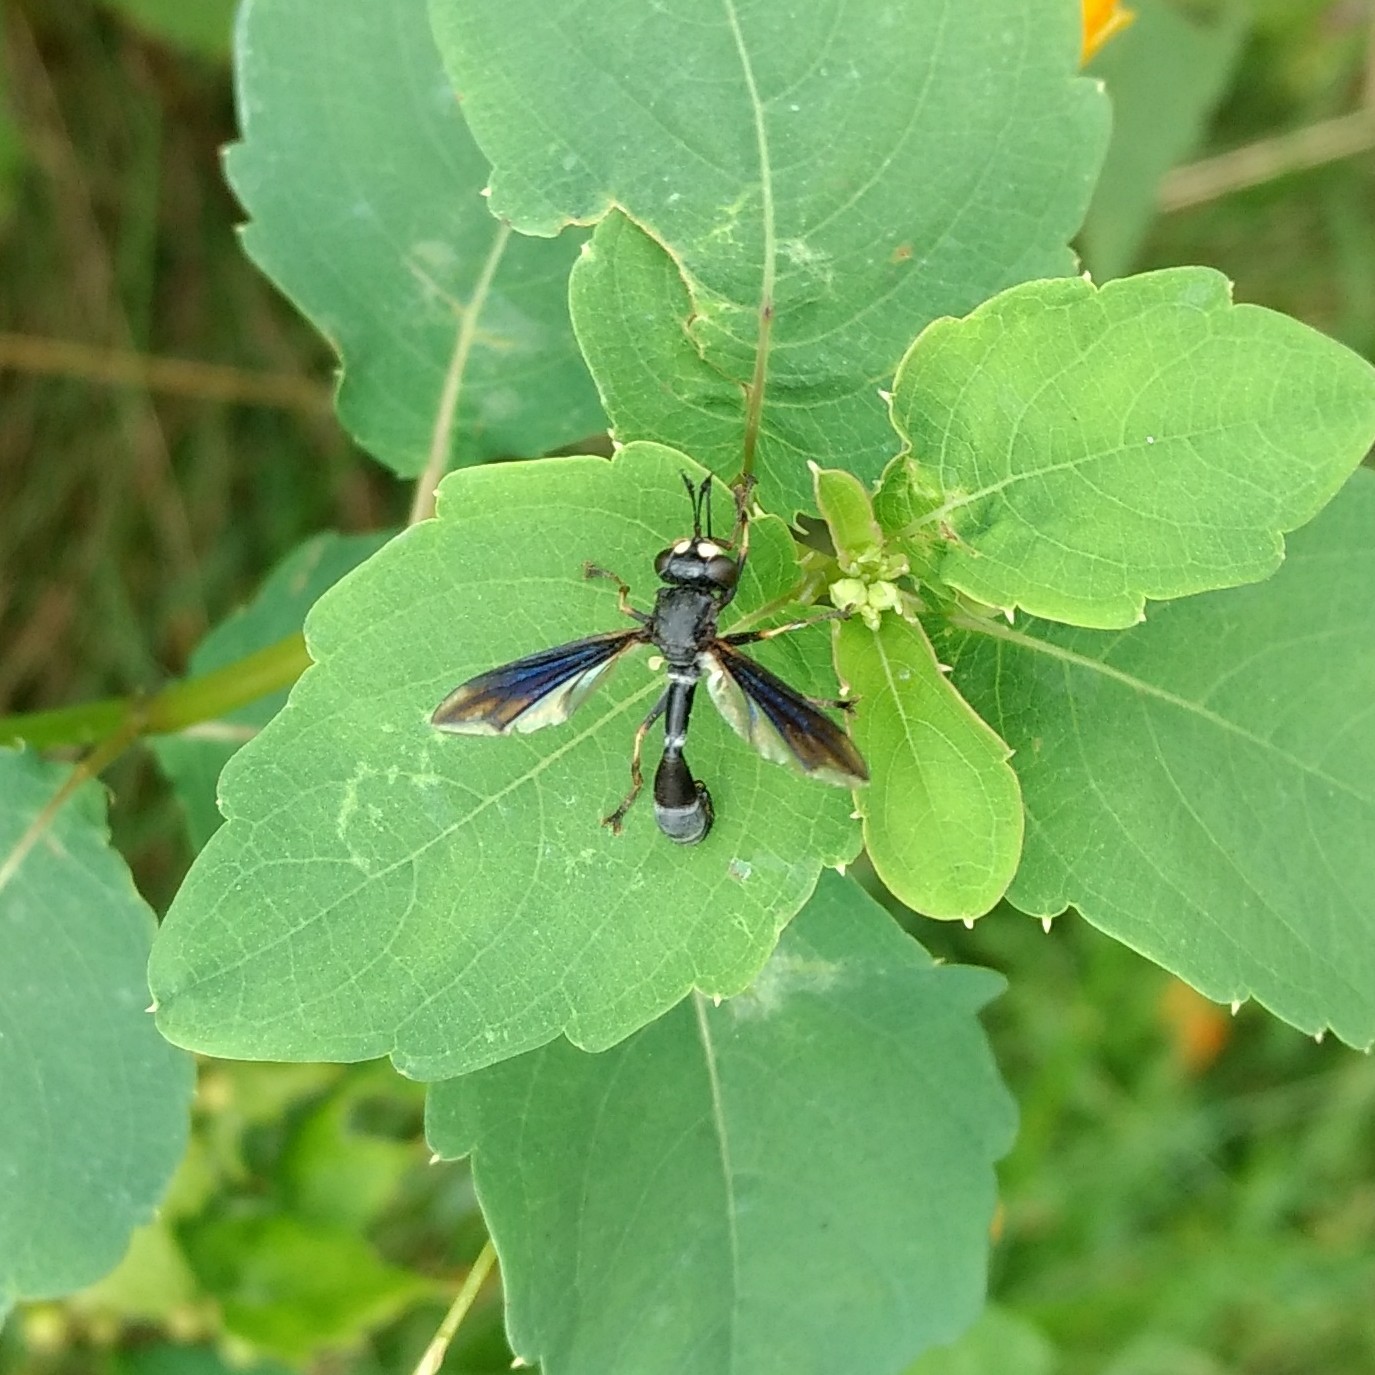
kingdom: Animalia
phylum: Arthropoda
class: Insecta
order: Diptera
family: Conopidae
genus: Physocephala
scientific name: Physocephala tibialis
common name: Common eastern physocephala
